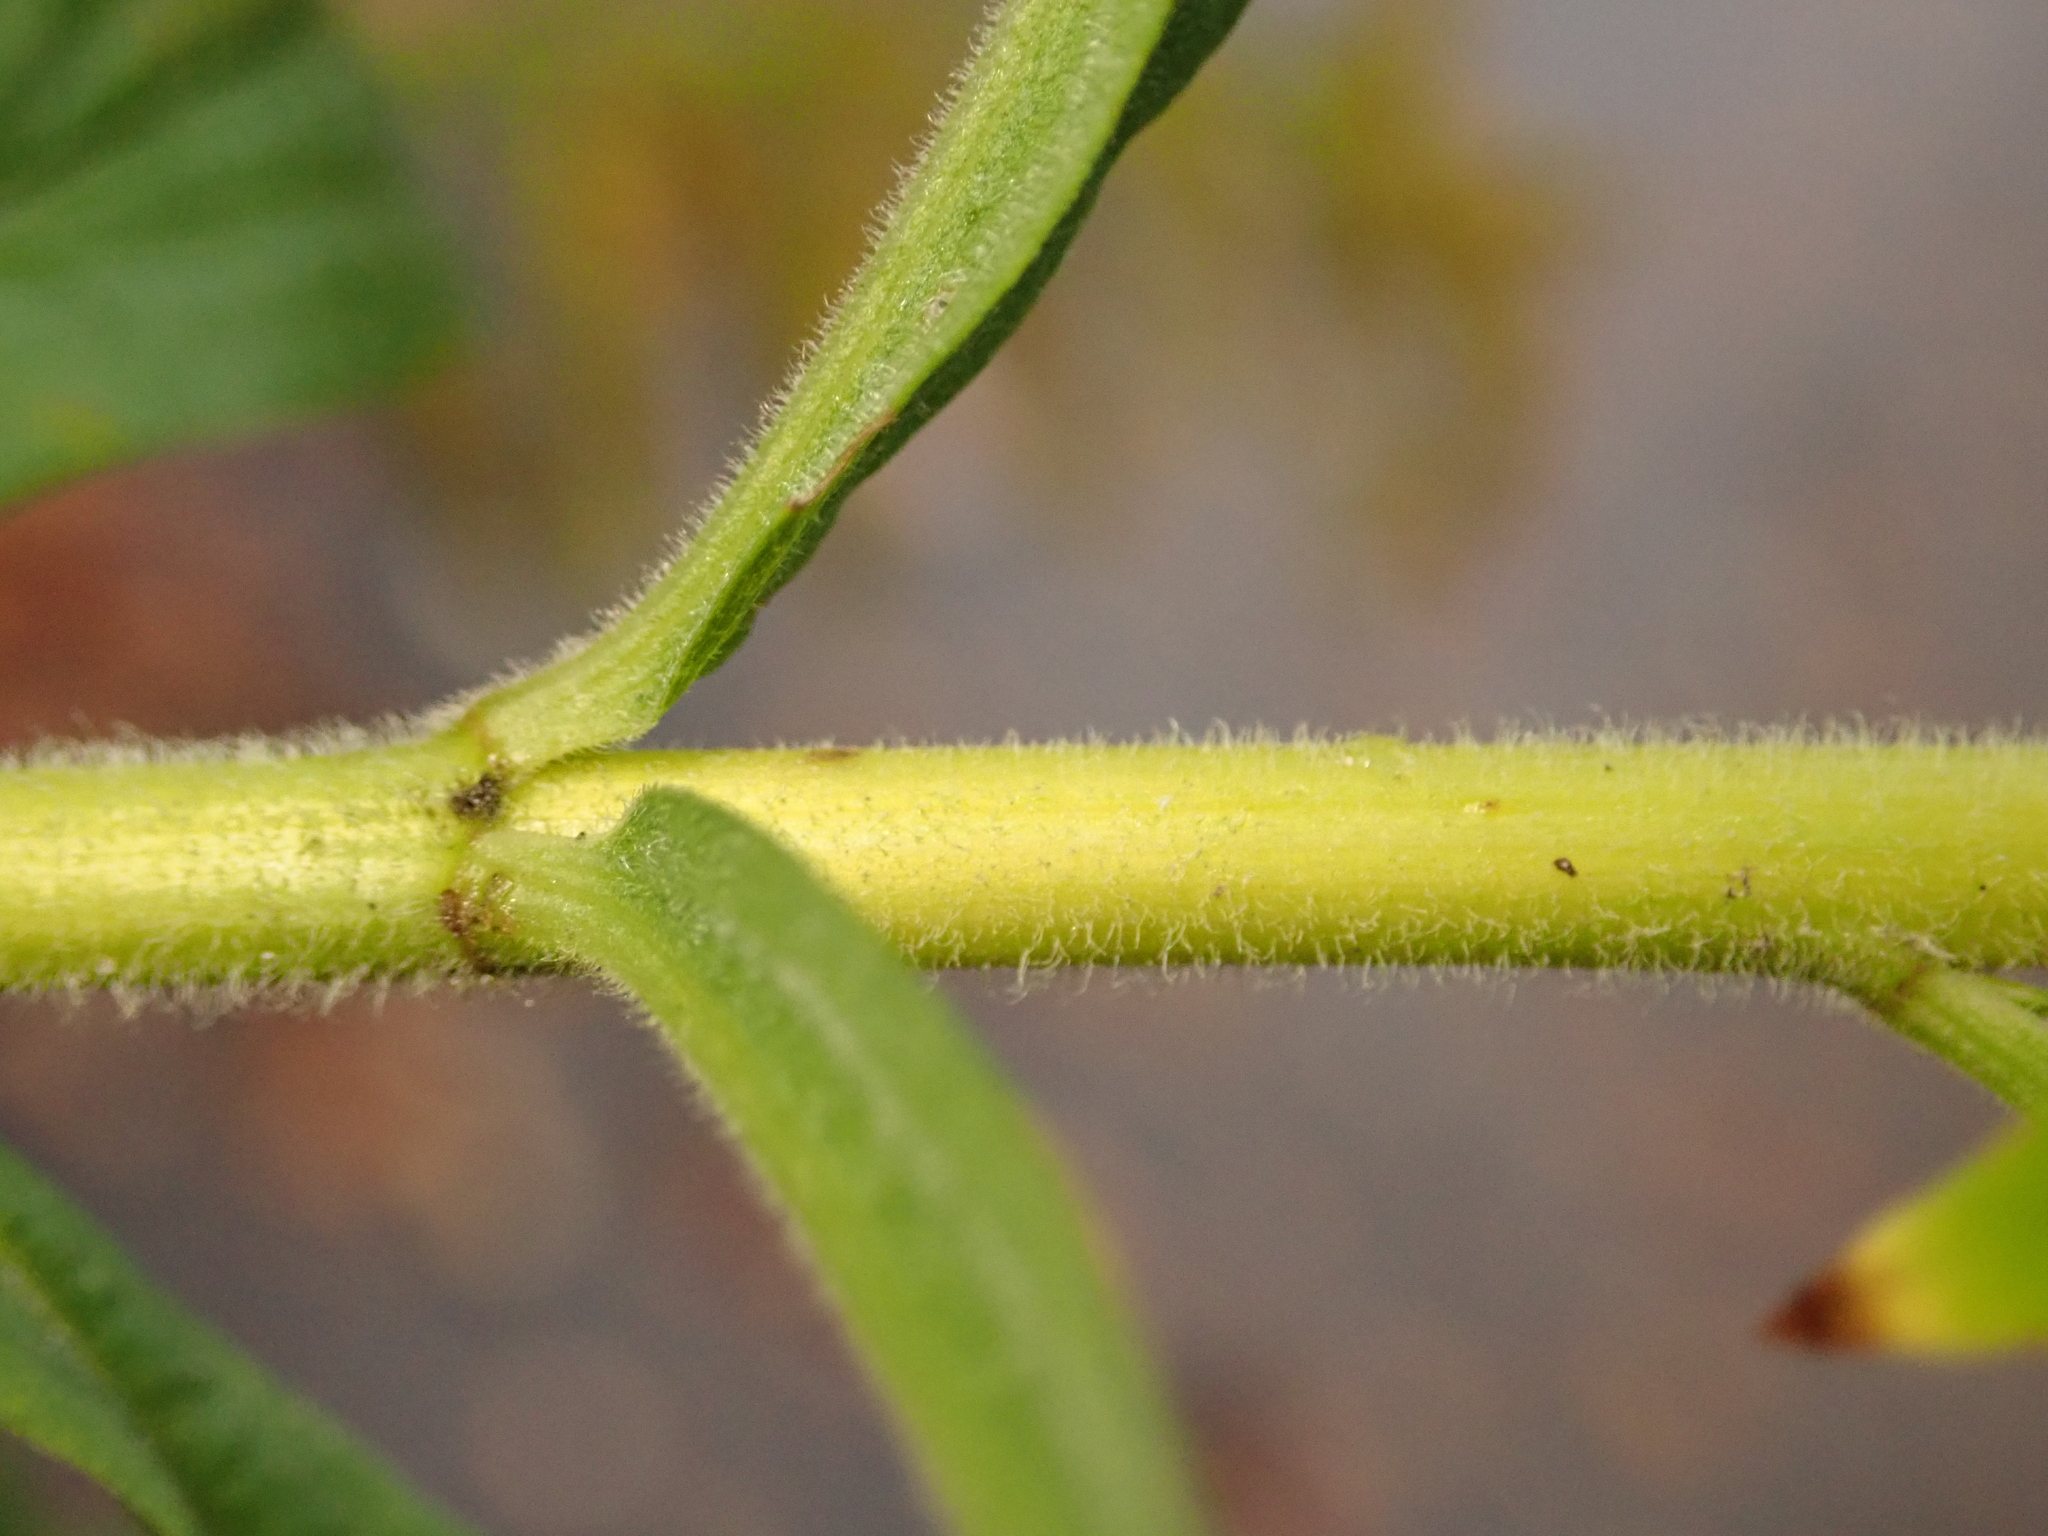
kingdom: Plantae
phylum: Tracheophyta
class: Magnoliopsida
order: Asterales
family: Asteraceae
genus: Solidago
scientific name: Solidago canadensis
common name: Canada goldenrod
